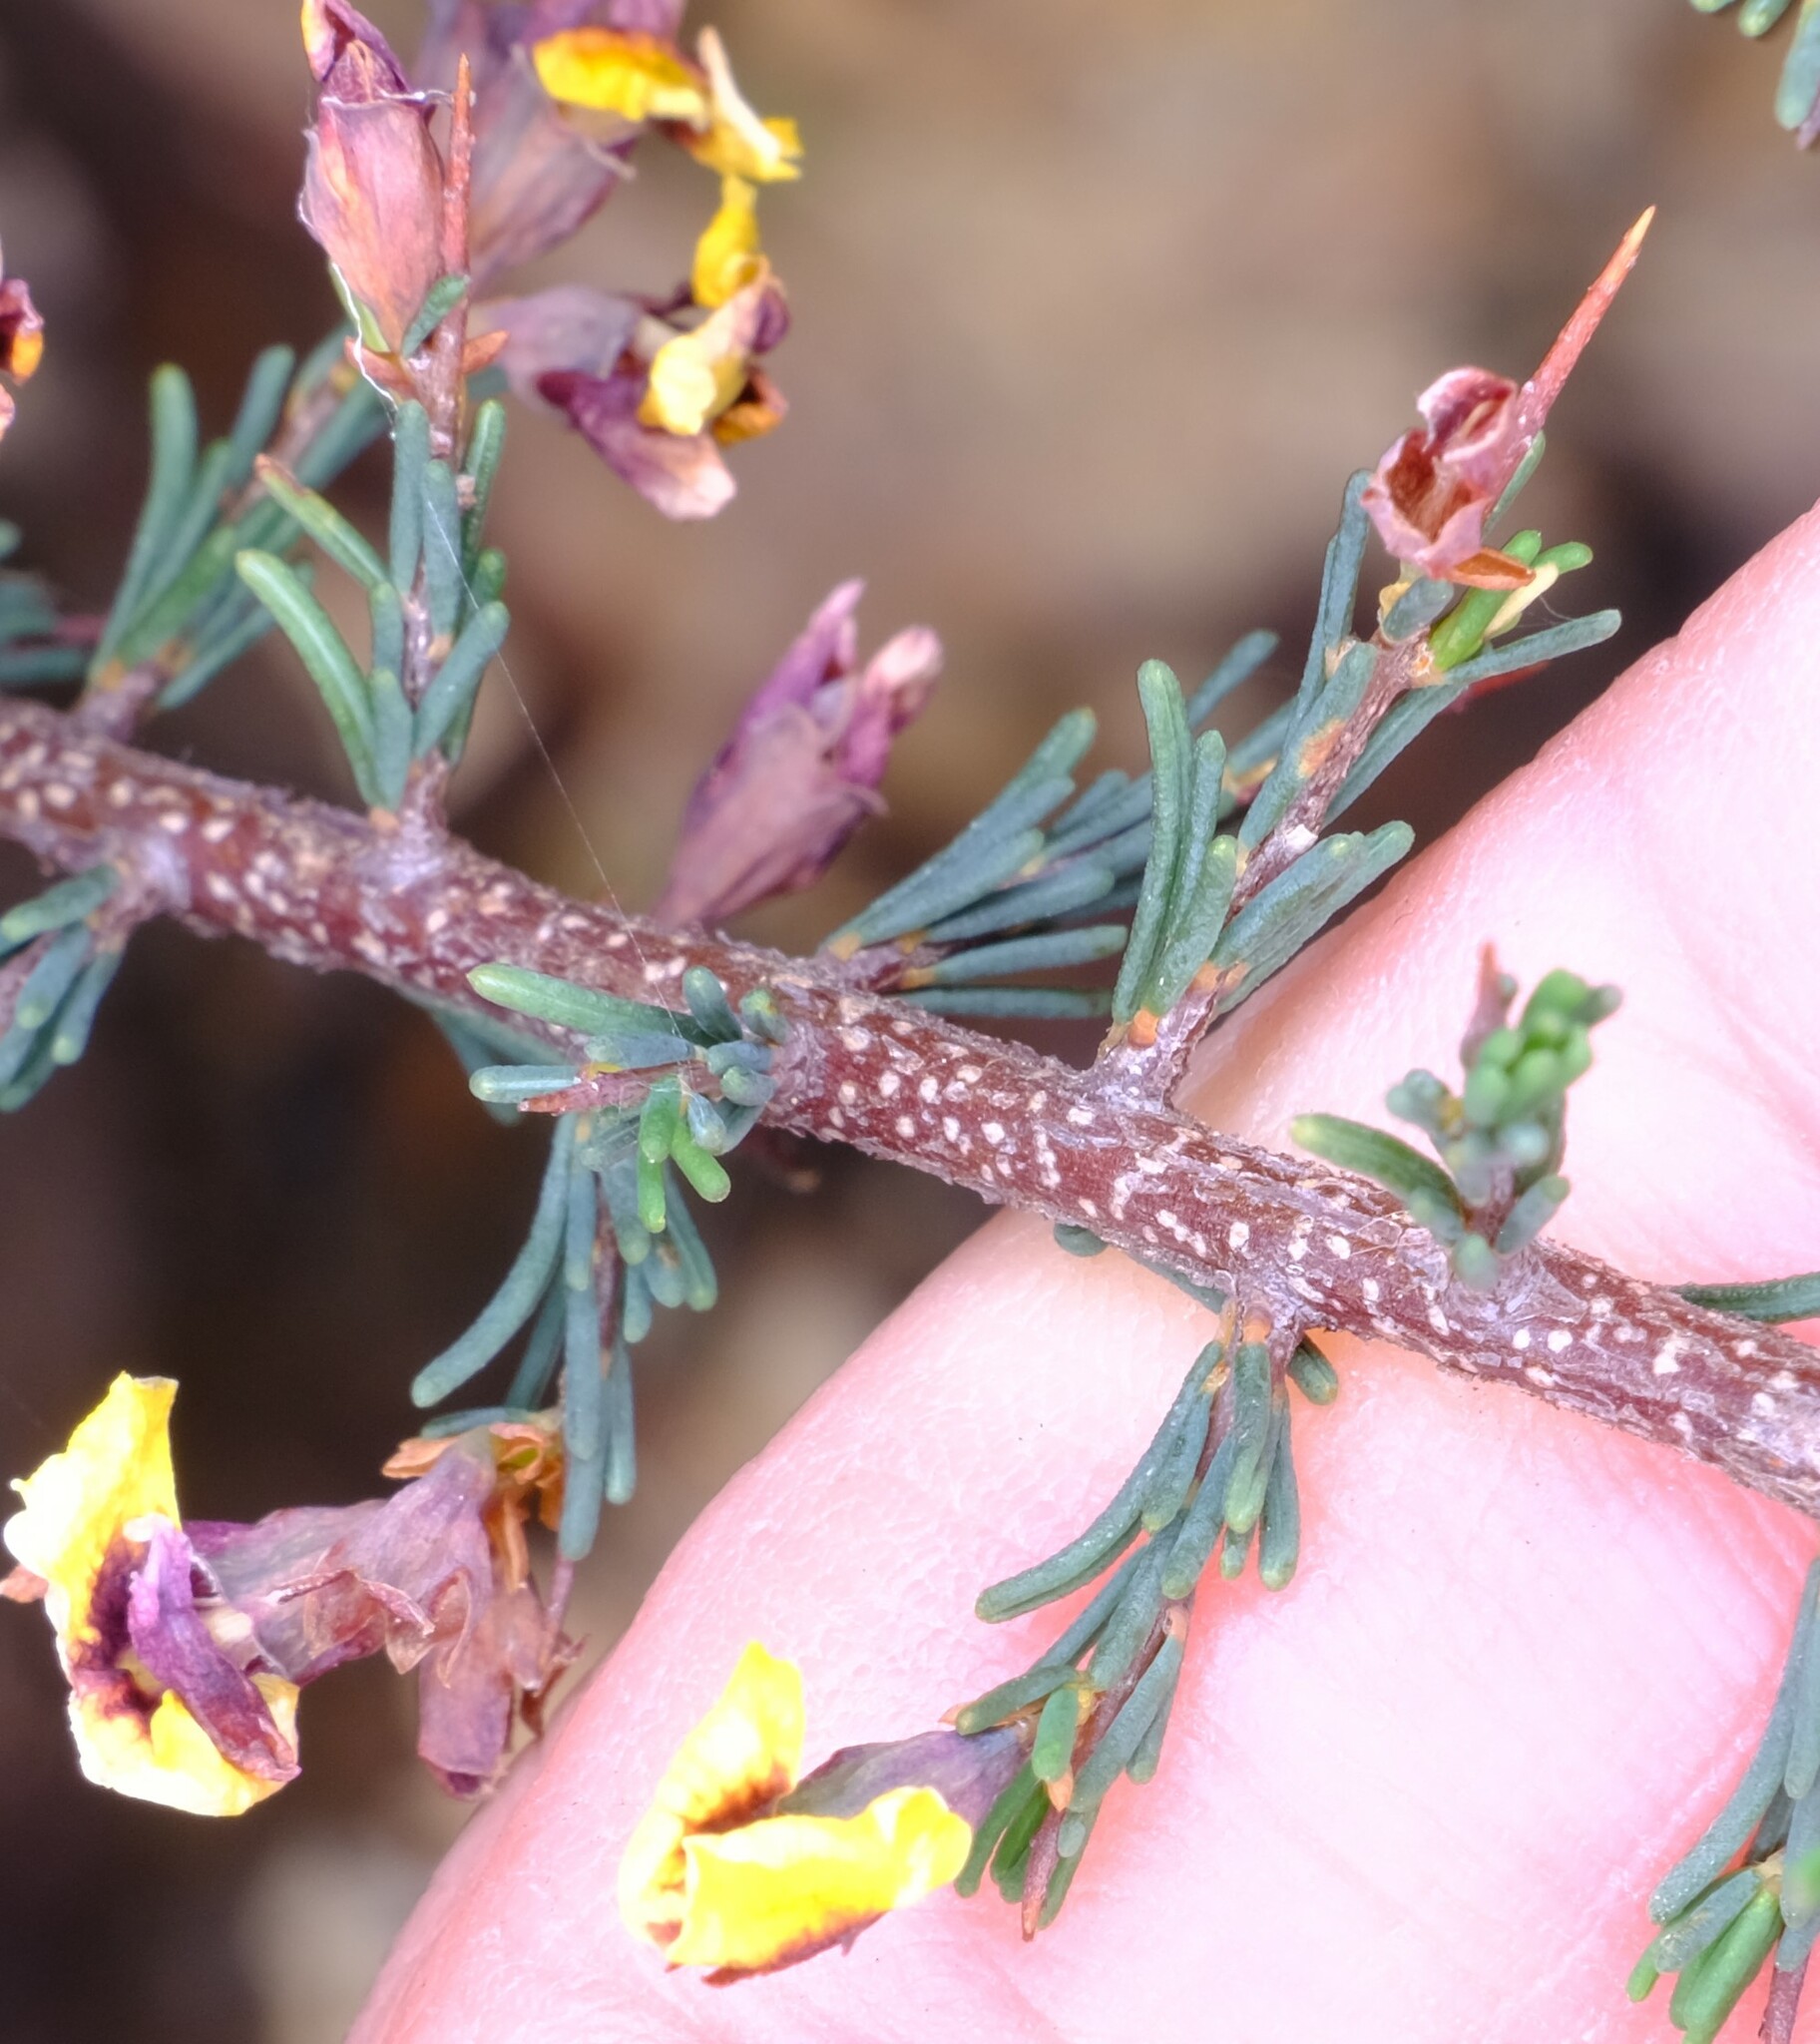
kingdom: Plantae
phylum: Tracheophyta
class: Magnoliopsida
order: Fabales
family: Fabaceae
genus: Dillwynia
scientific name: Dillwynia ramosissima
